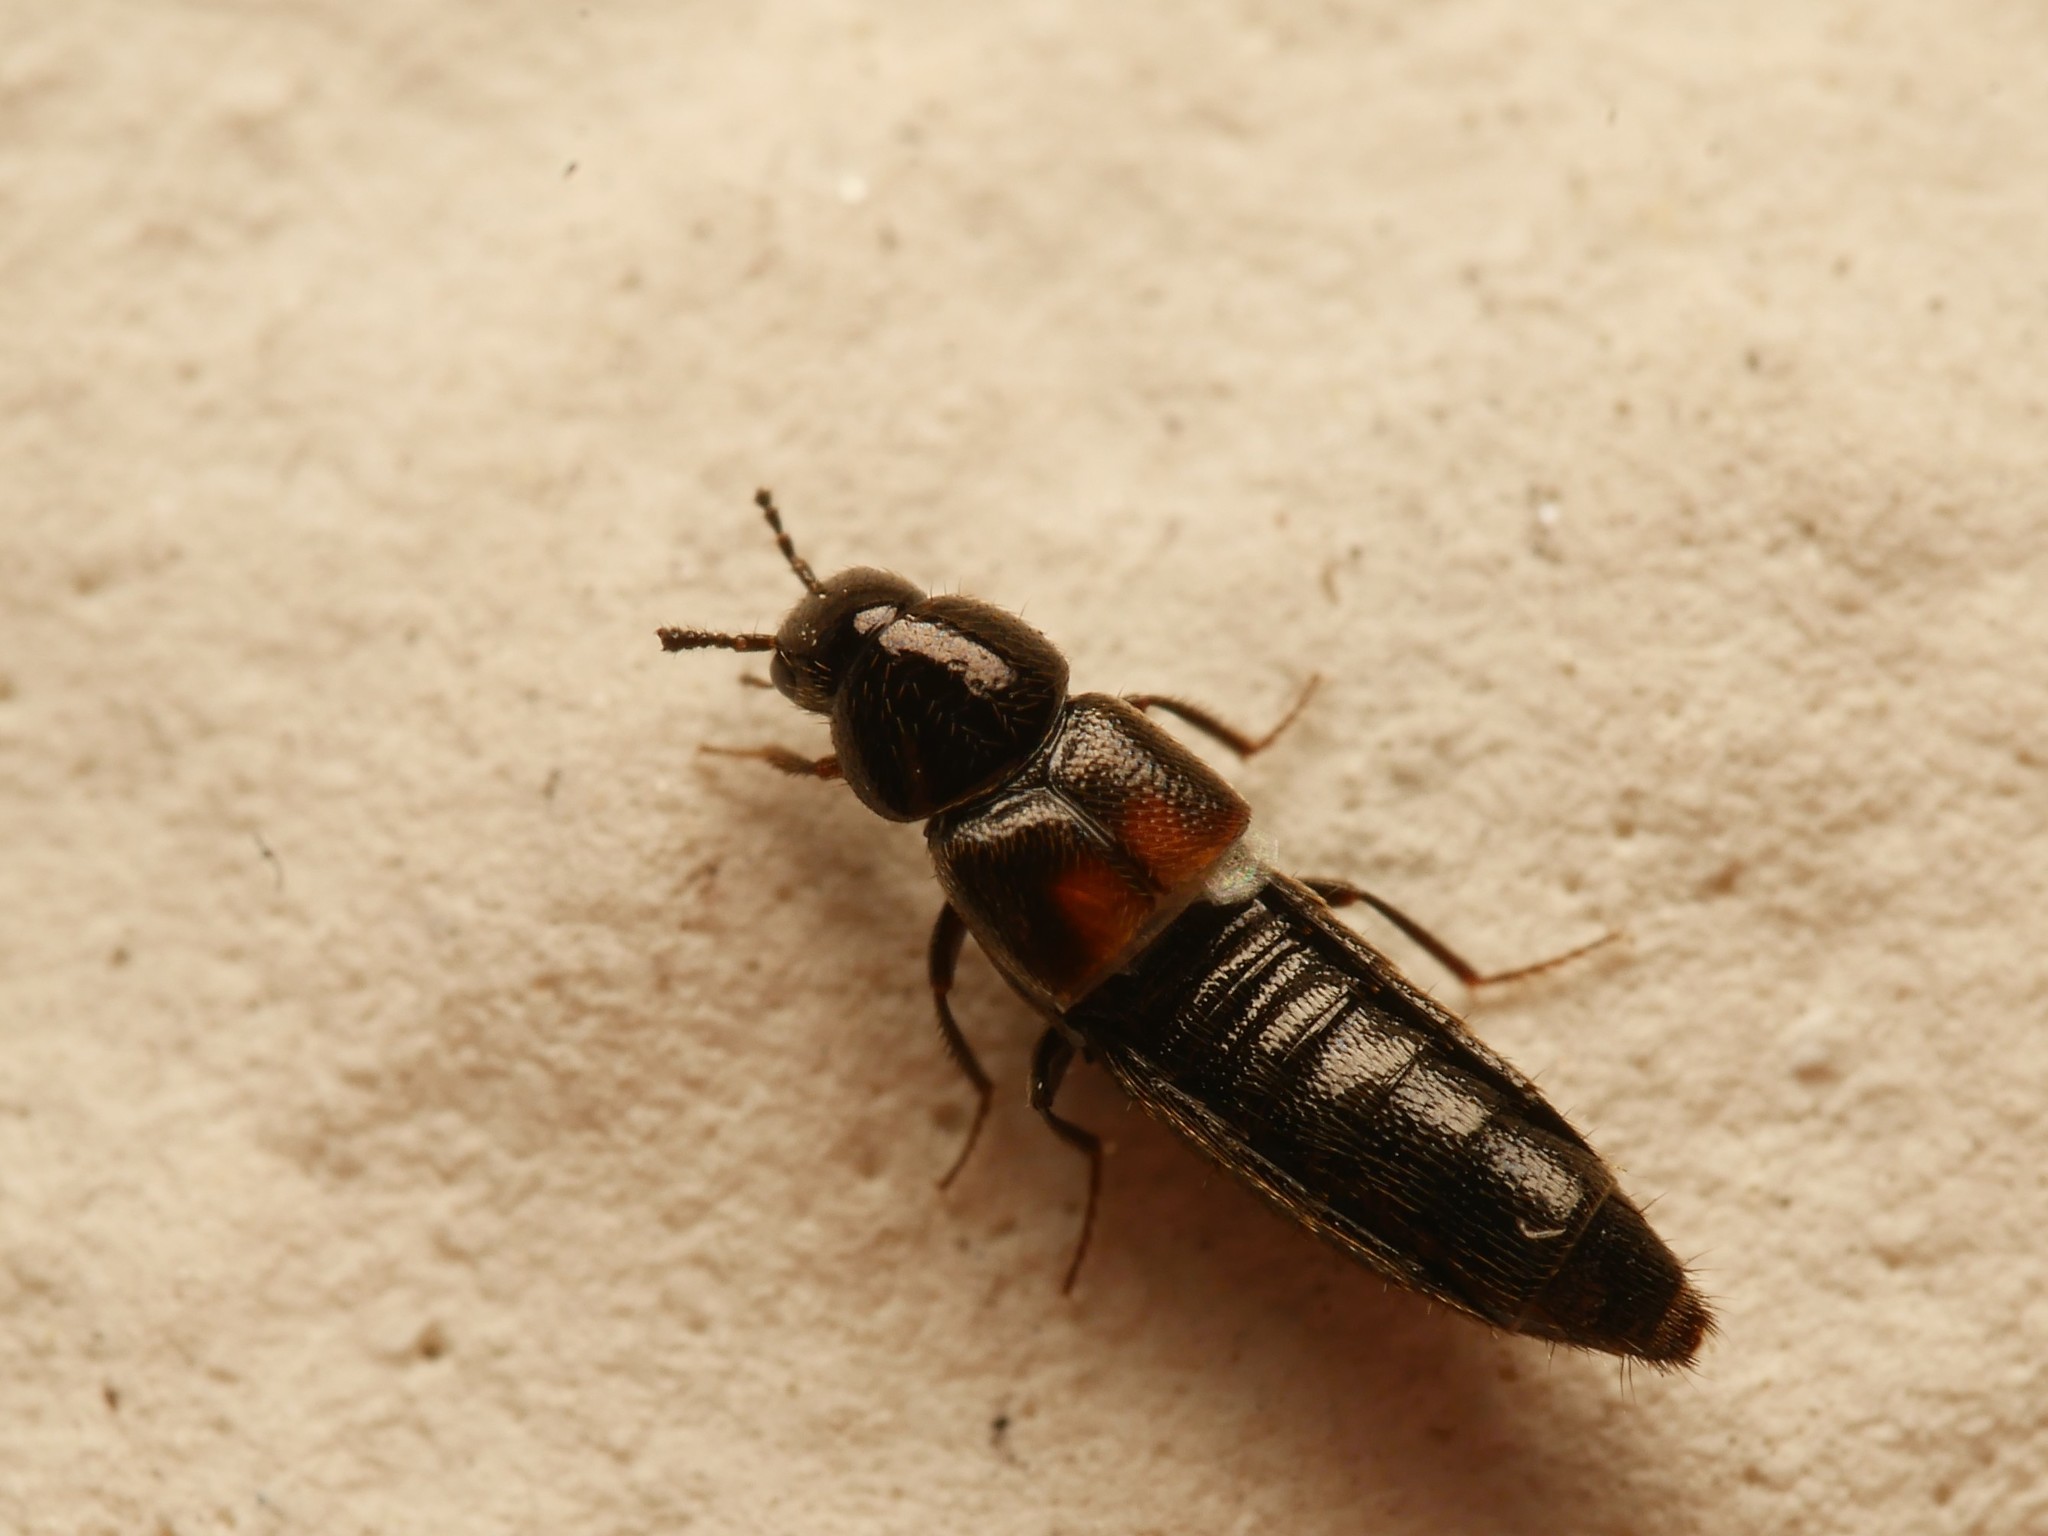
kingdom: Animalia
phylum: Arthropoda
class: Insecta
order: Coleoptera
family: Staphylinidae
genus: Aleochara
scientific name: Aleochara bipustulata
